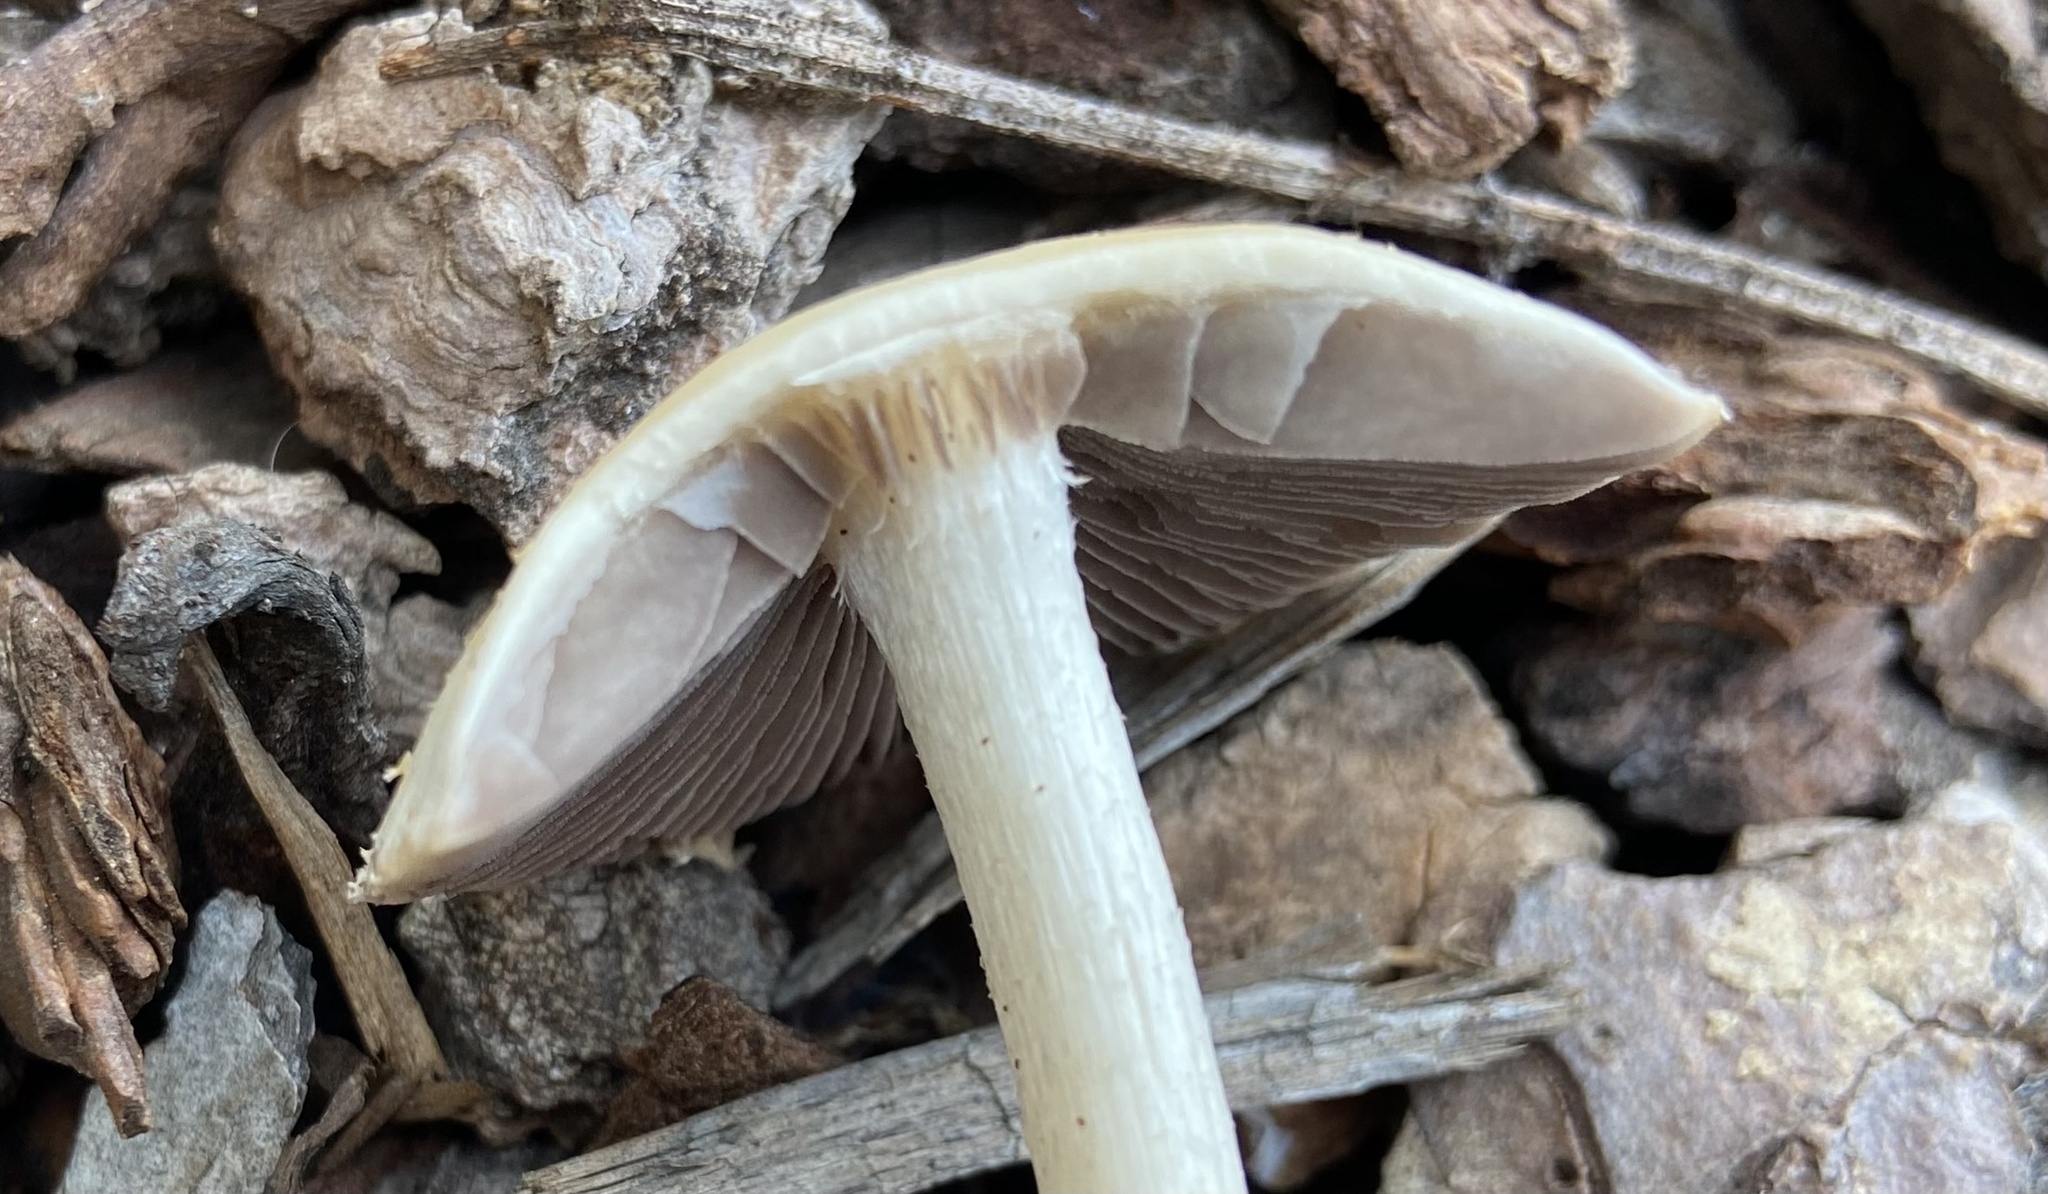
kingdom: Fungi
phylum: Basidiomycota
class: Agaricomycetes
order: Agaricales
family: Psathyrellaceae
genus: Candolleomyces
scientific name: Candolleomyces candolleanus
